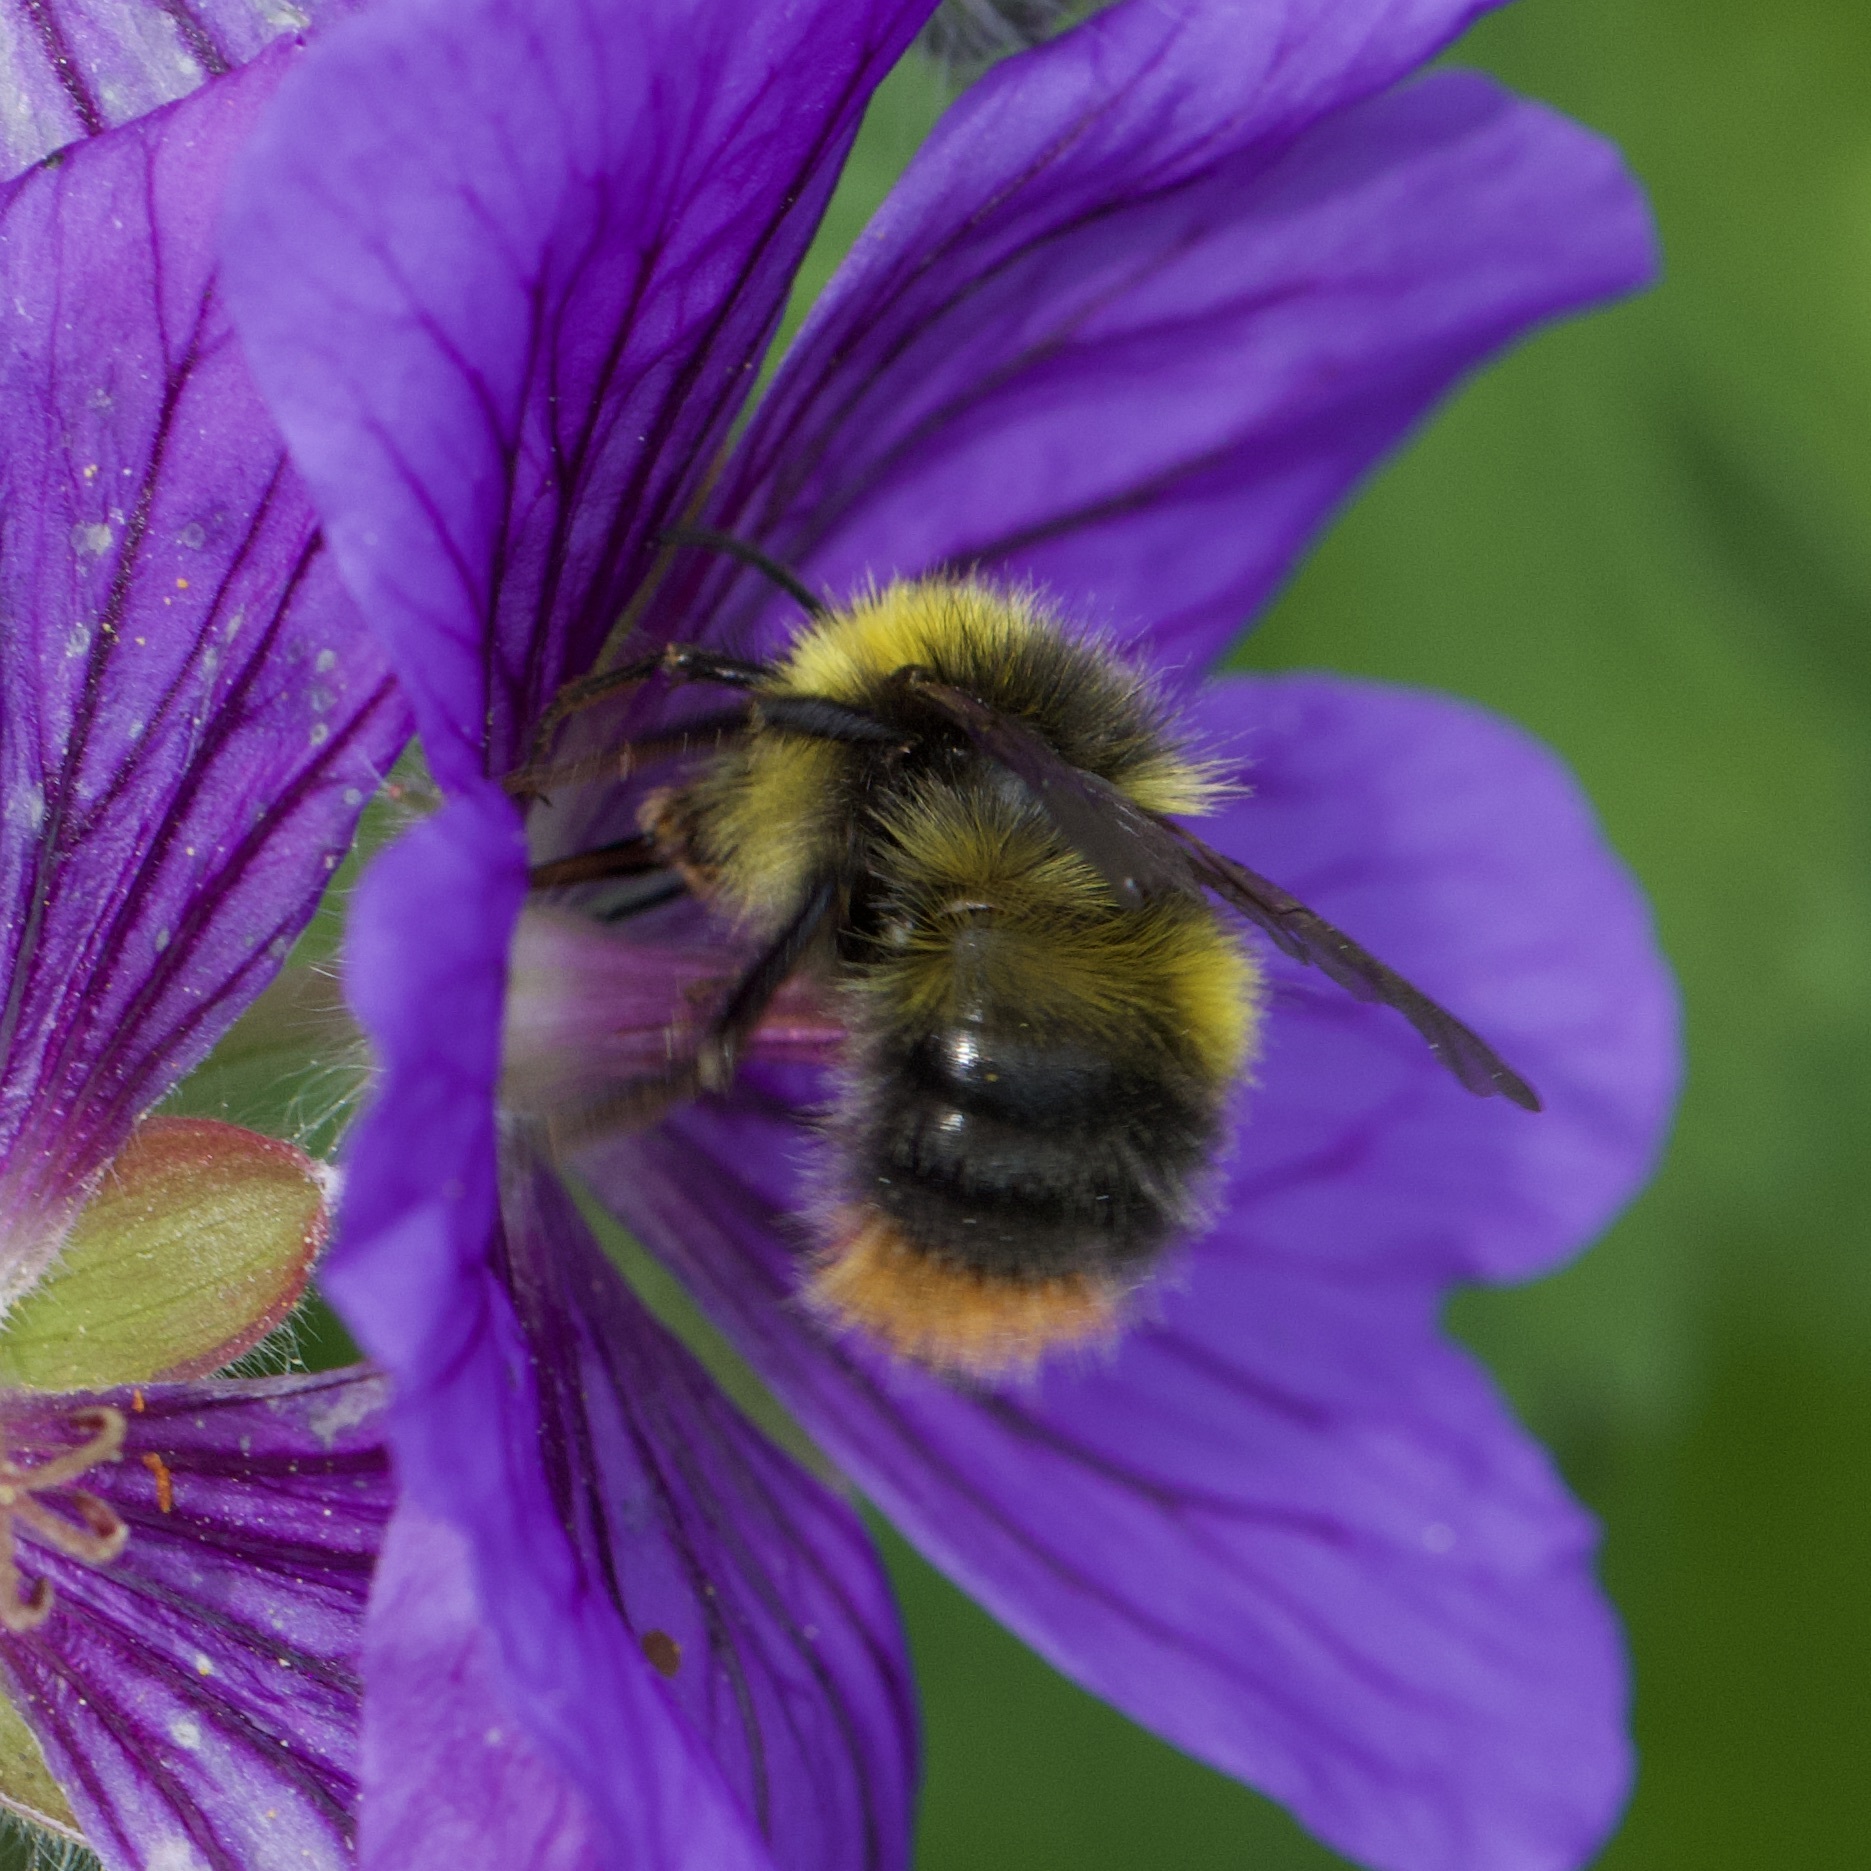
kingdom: Animalia
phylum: Arthropoda
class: Insecta
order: Hymenoptera
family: Apidae
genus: Bombus
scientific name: Bombus pratorum
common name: Early humble-bee
